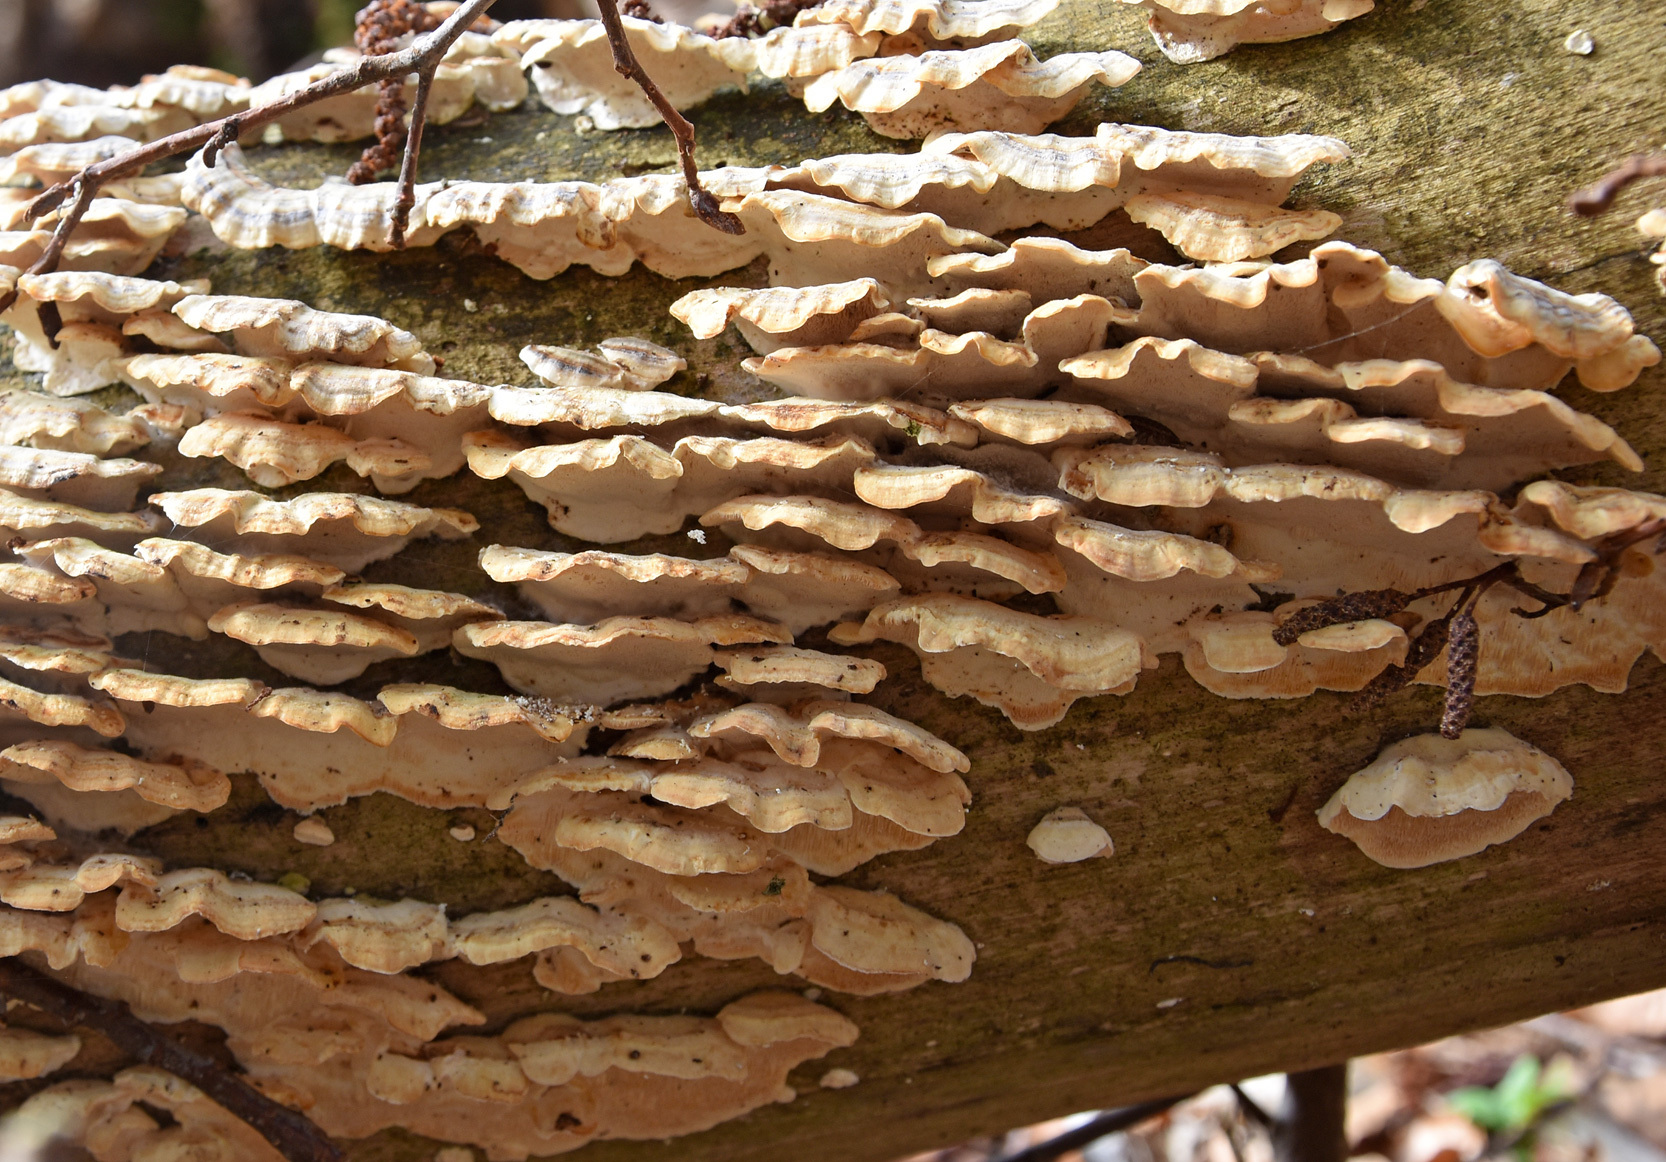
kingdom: Fungi
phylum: Basidiomycota
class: Agaricomycetes
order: Polyporales
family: Polyporaceae
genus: Trametes
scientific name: Trametes versicolor
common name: Turkeytail
